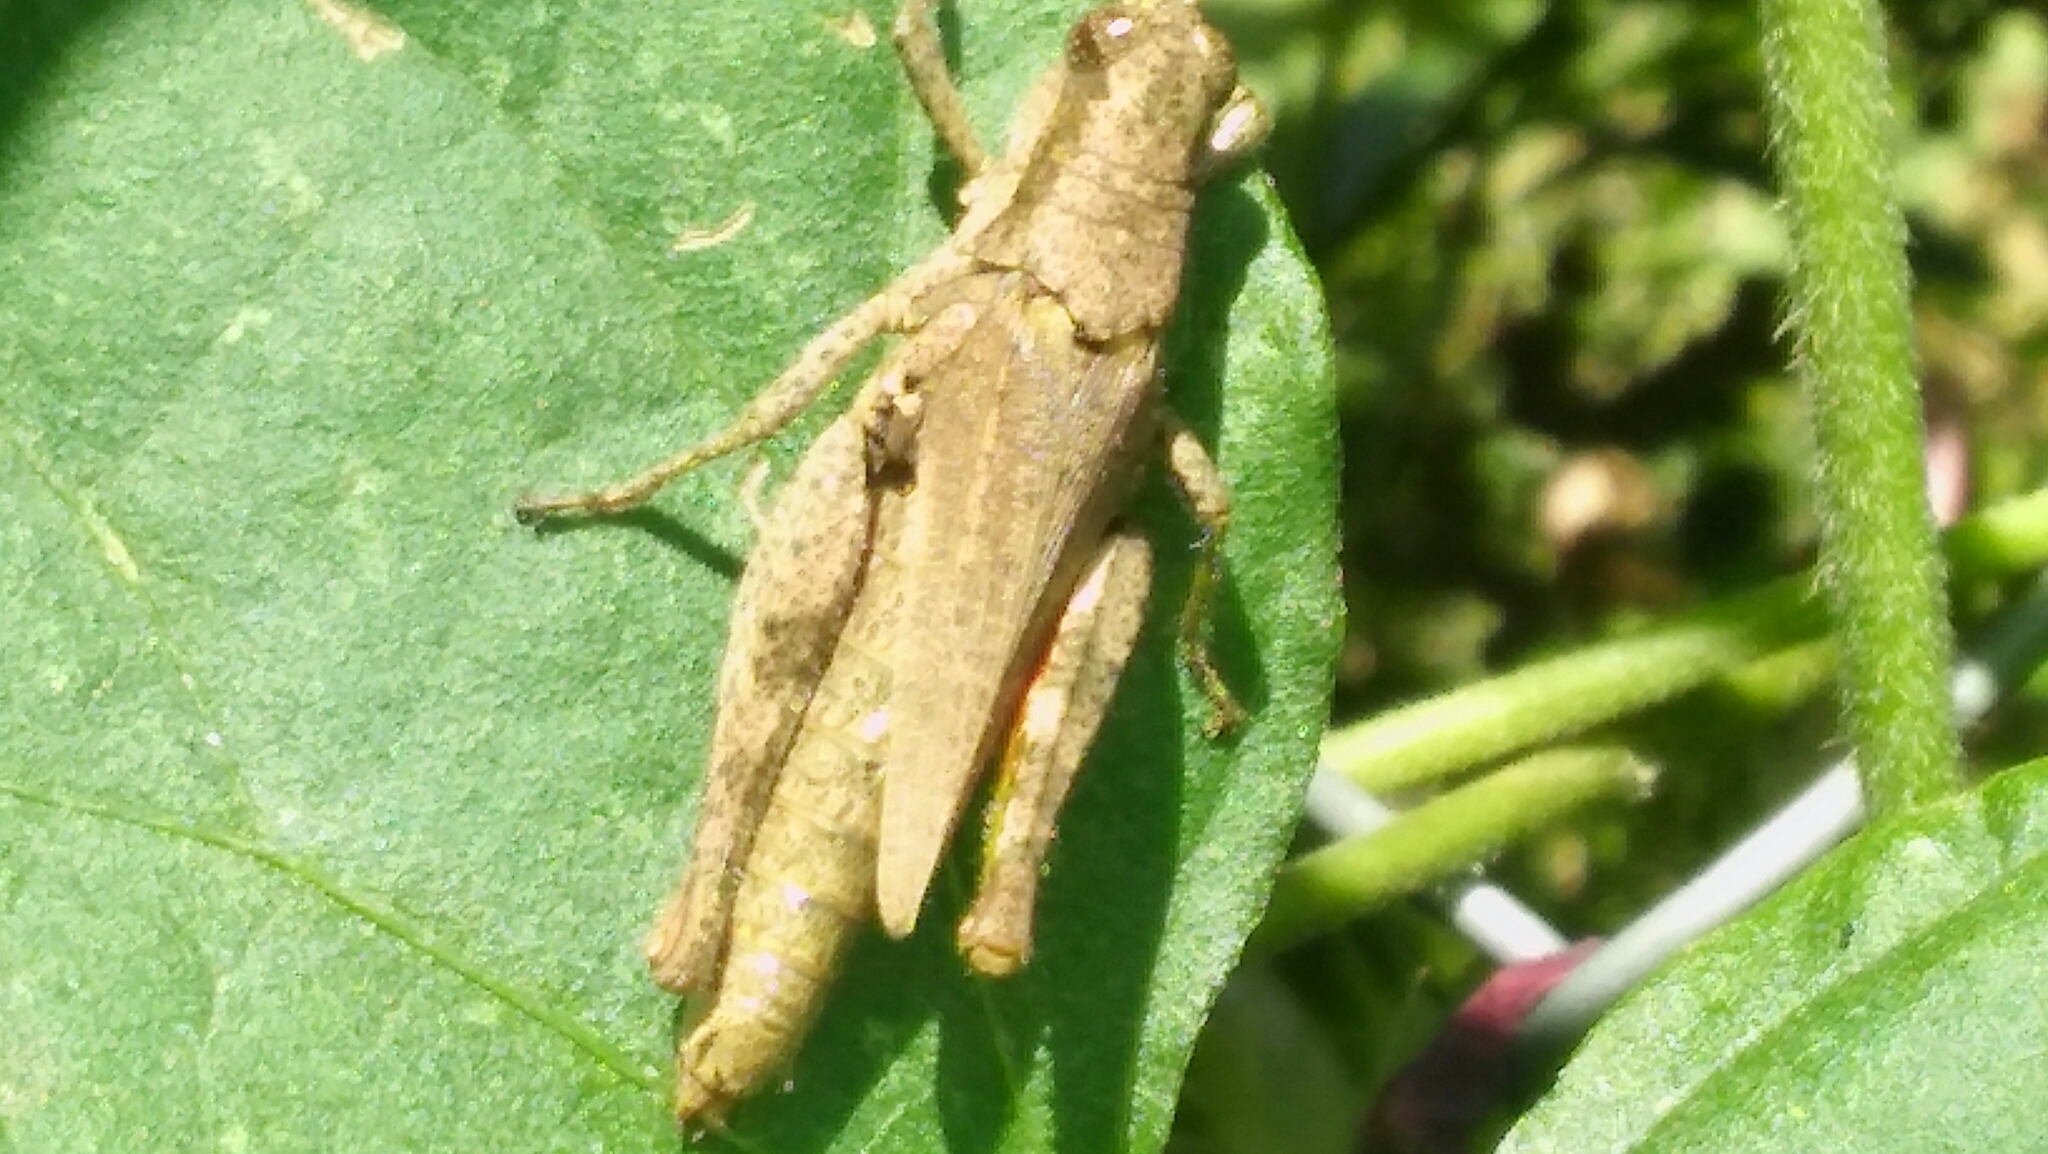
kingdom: Animalia
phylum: Arthropoda
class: Insecta
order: Orthoptera
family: Acrididae
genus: Ronderosia
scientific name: Ronderosia bergii
